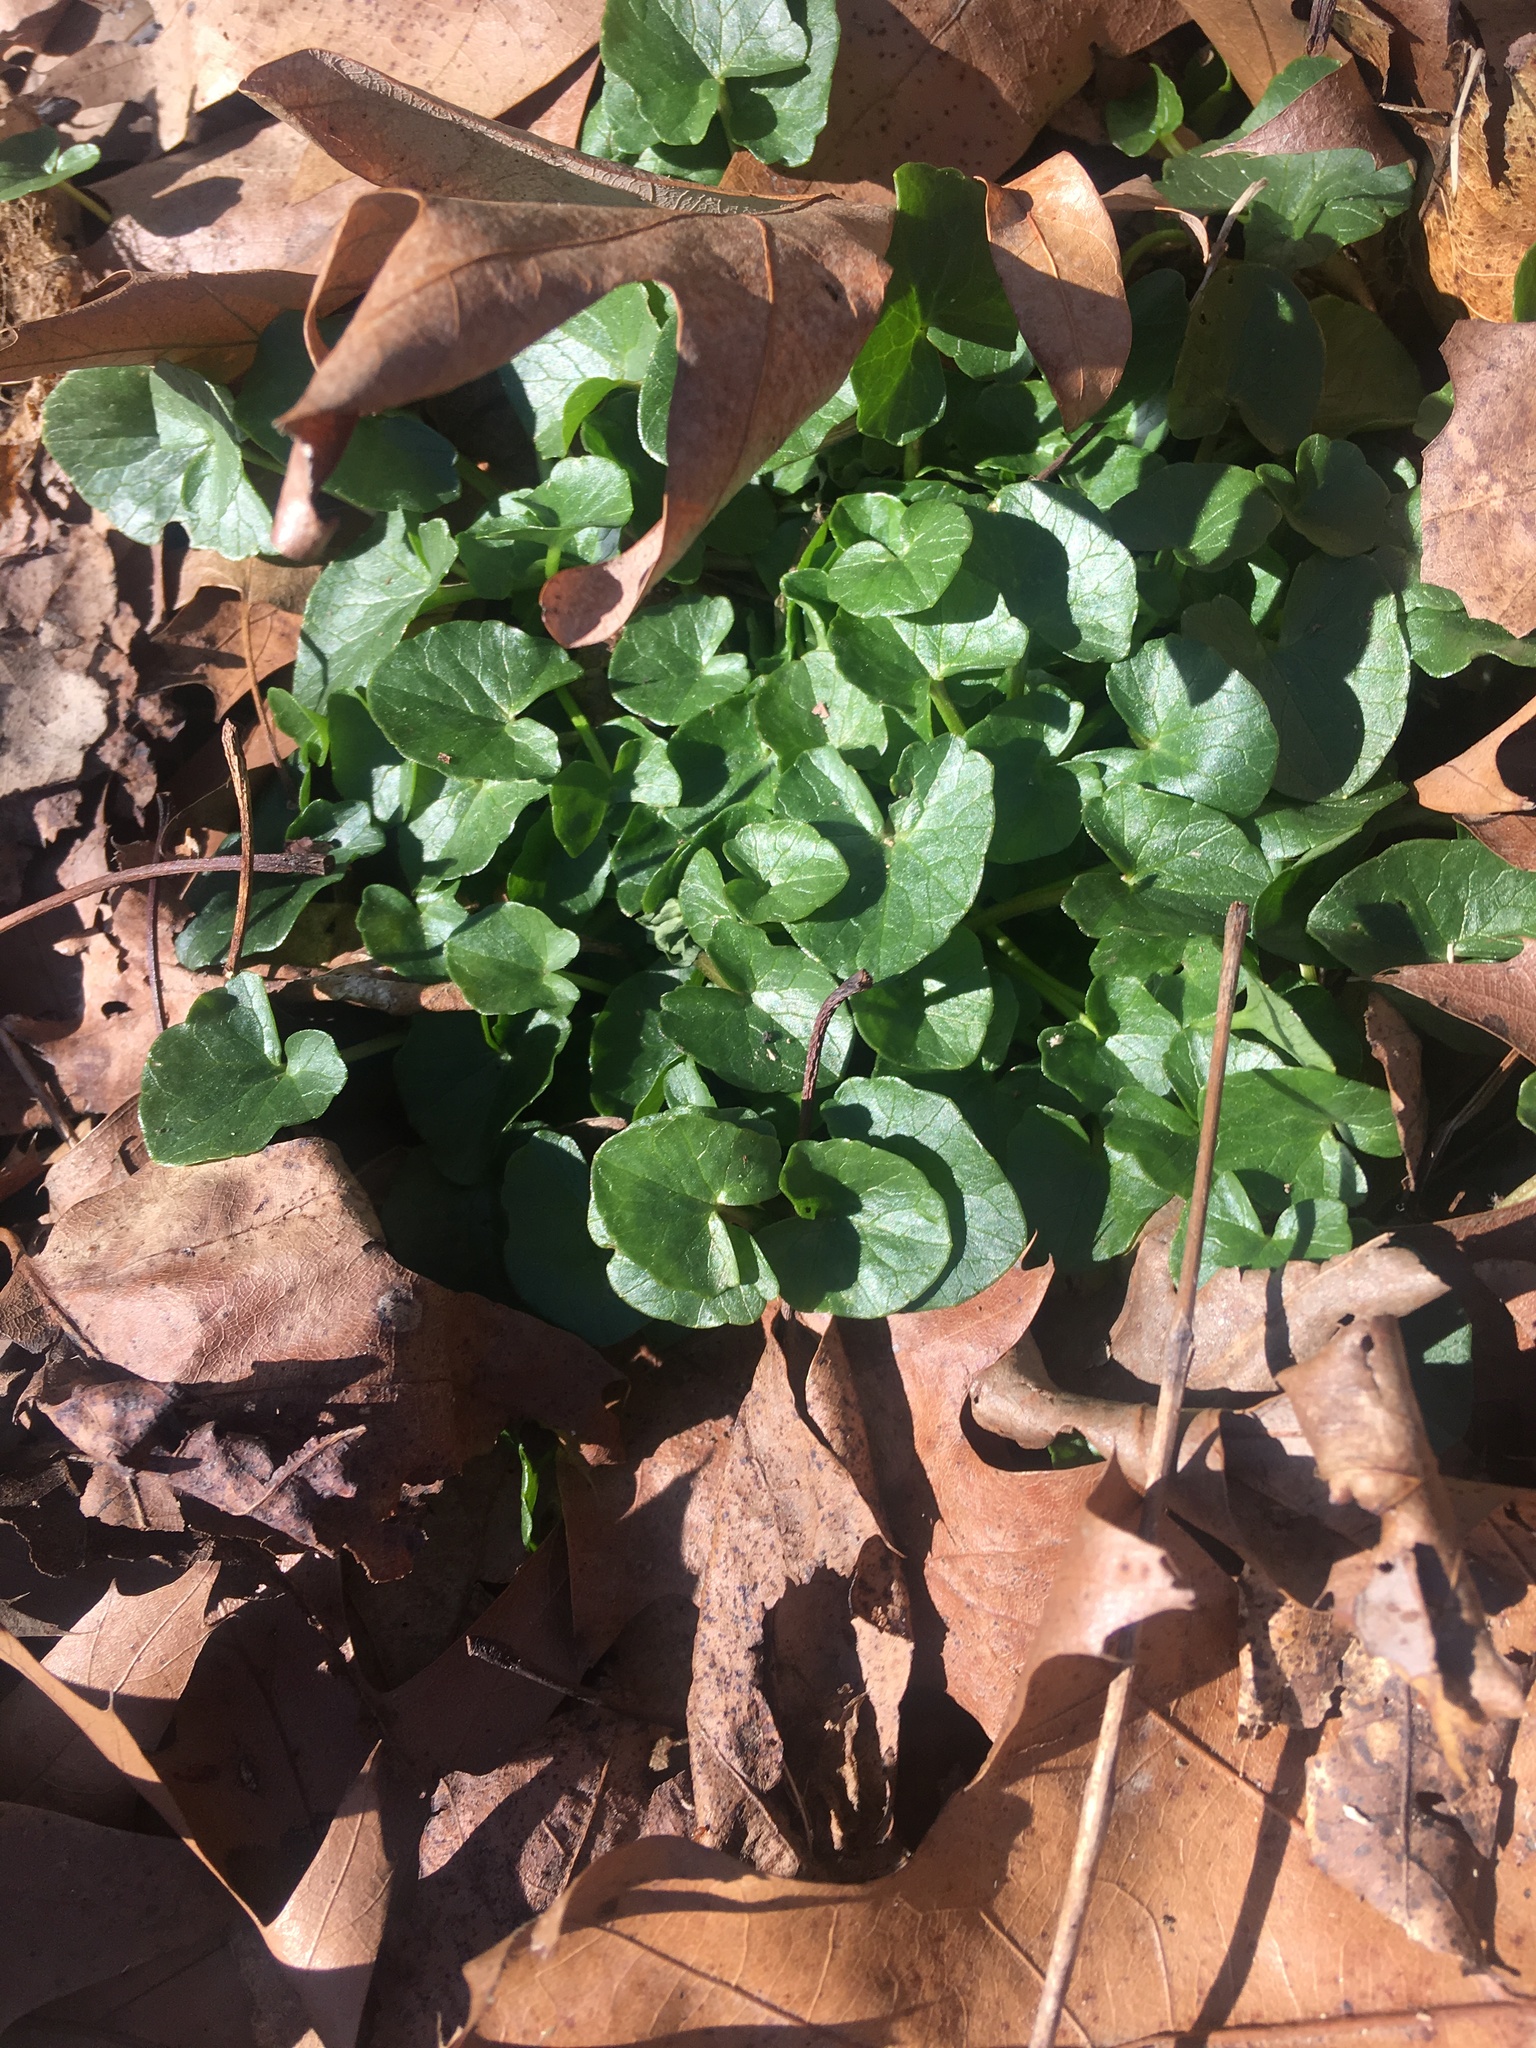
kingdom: Plantae
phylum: Tracheophyta
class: Magnoliopsida
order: Ranunculales
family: Ranunculaceae
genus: Ficaria
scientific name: Ficaria verna
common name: Lesser celandine
